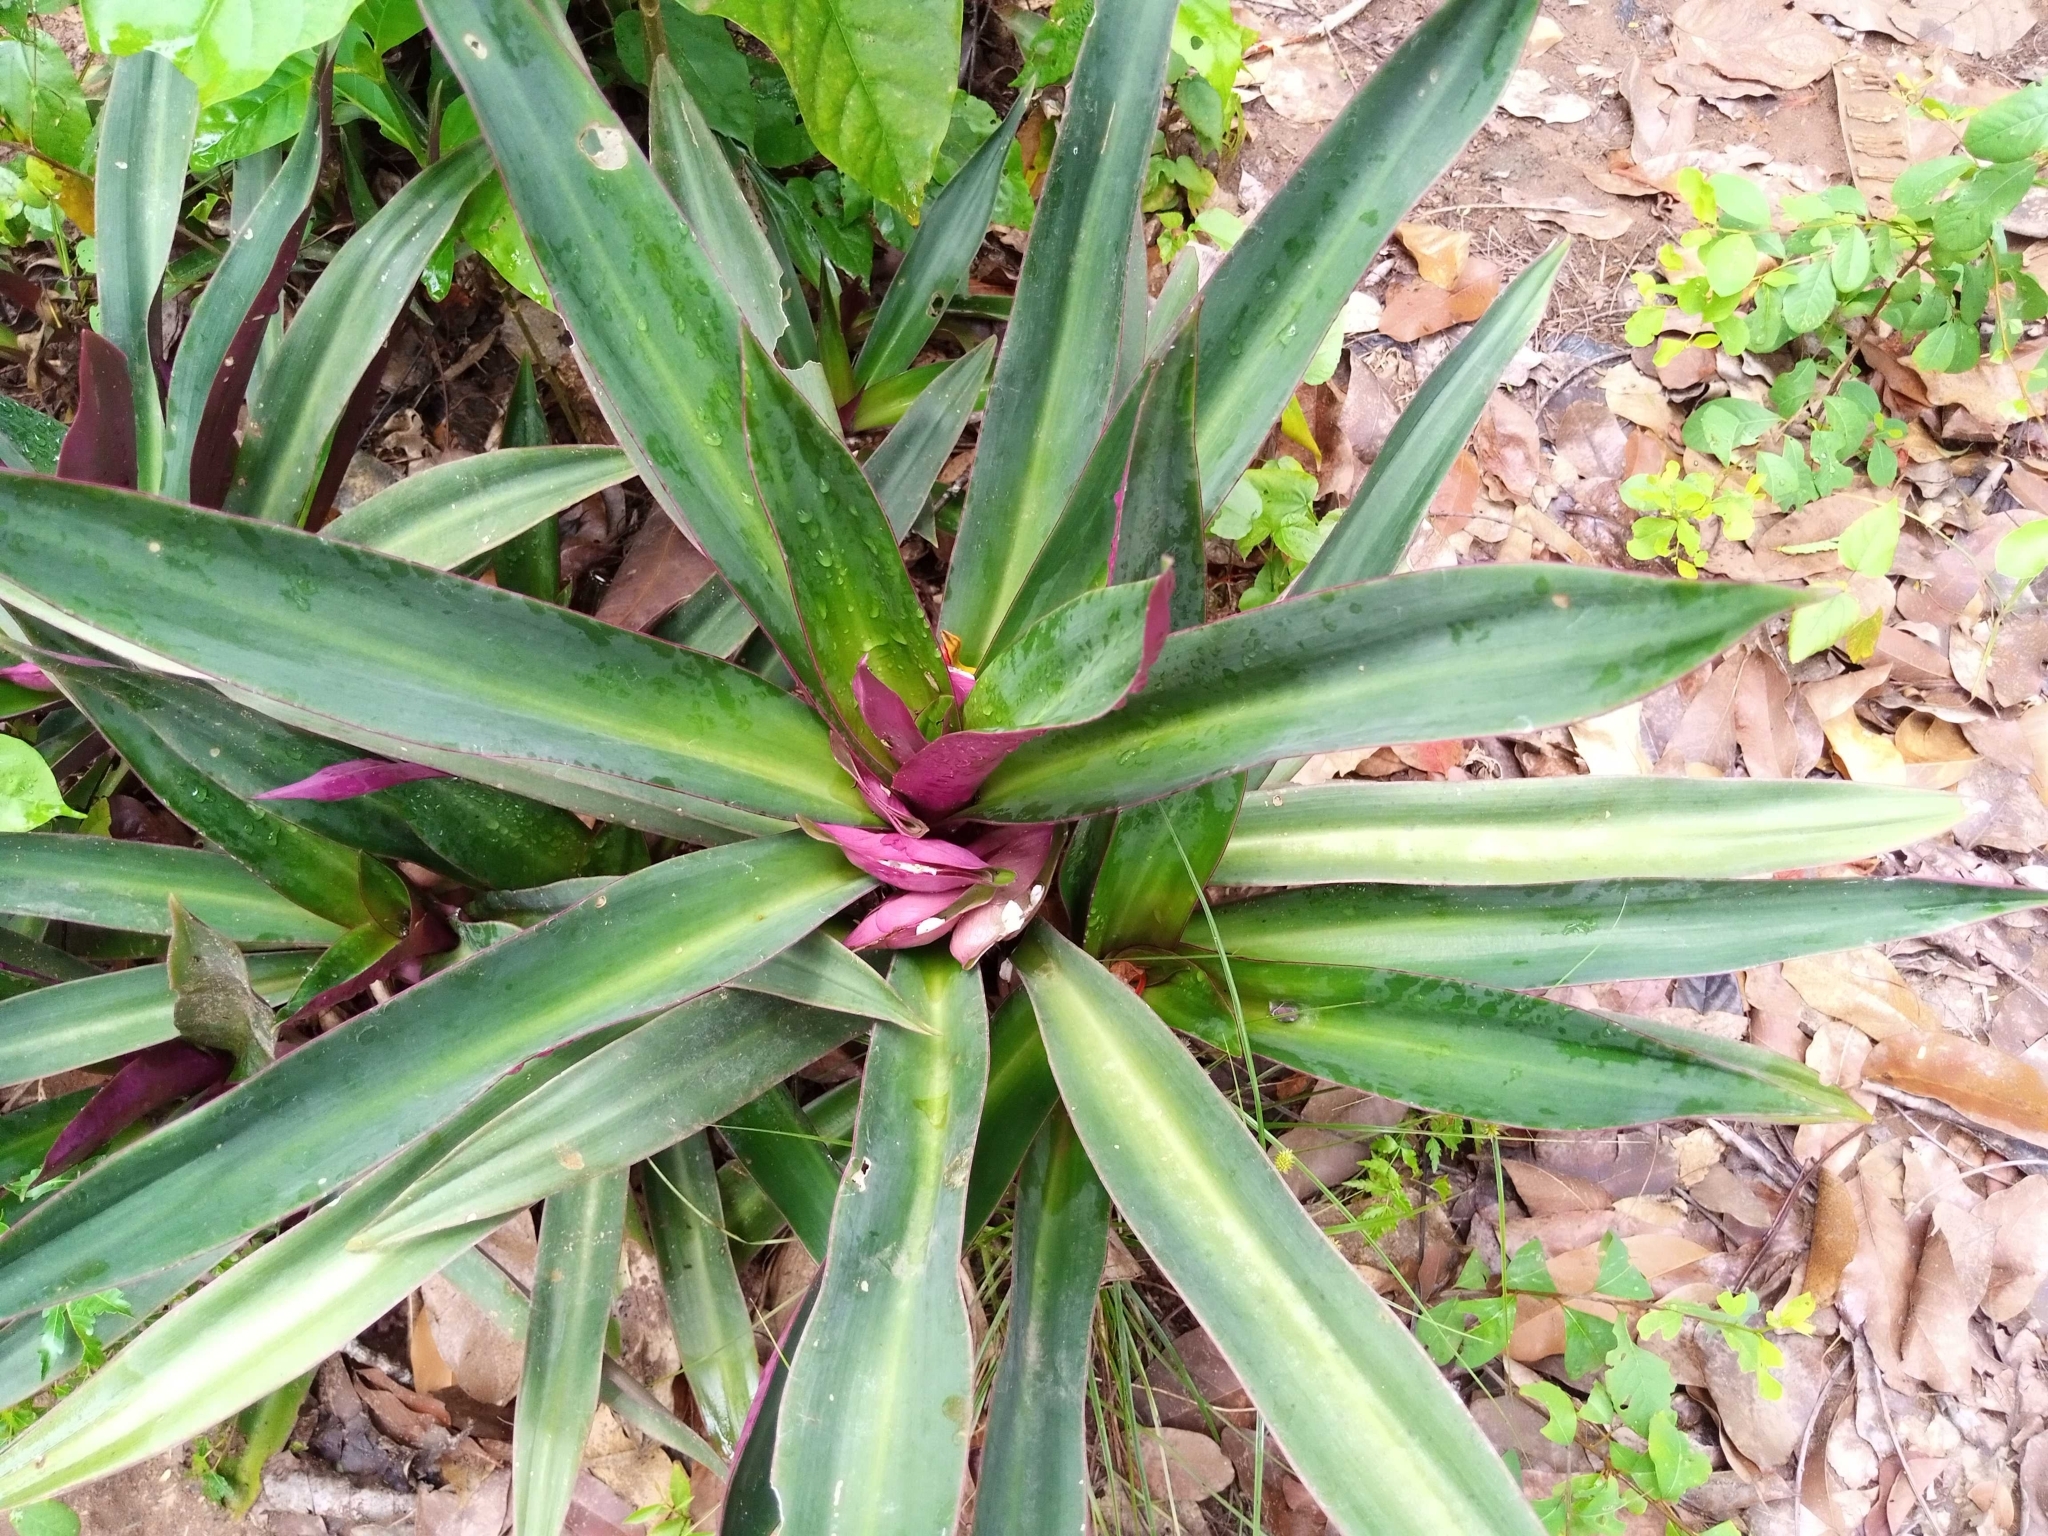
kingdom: Plantae
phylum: Tracheophyta
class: Liliopsida
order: Commelinales
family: Commelinaceae
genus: Tradescantia
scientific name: Tradescantia spathacea
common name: Boatlily
